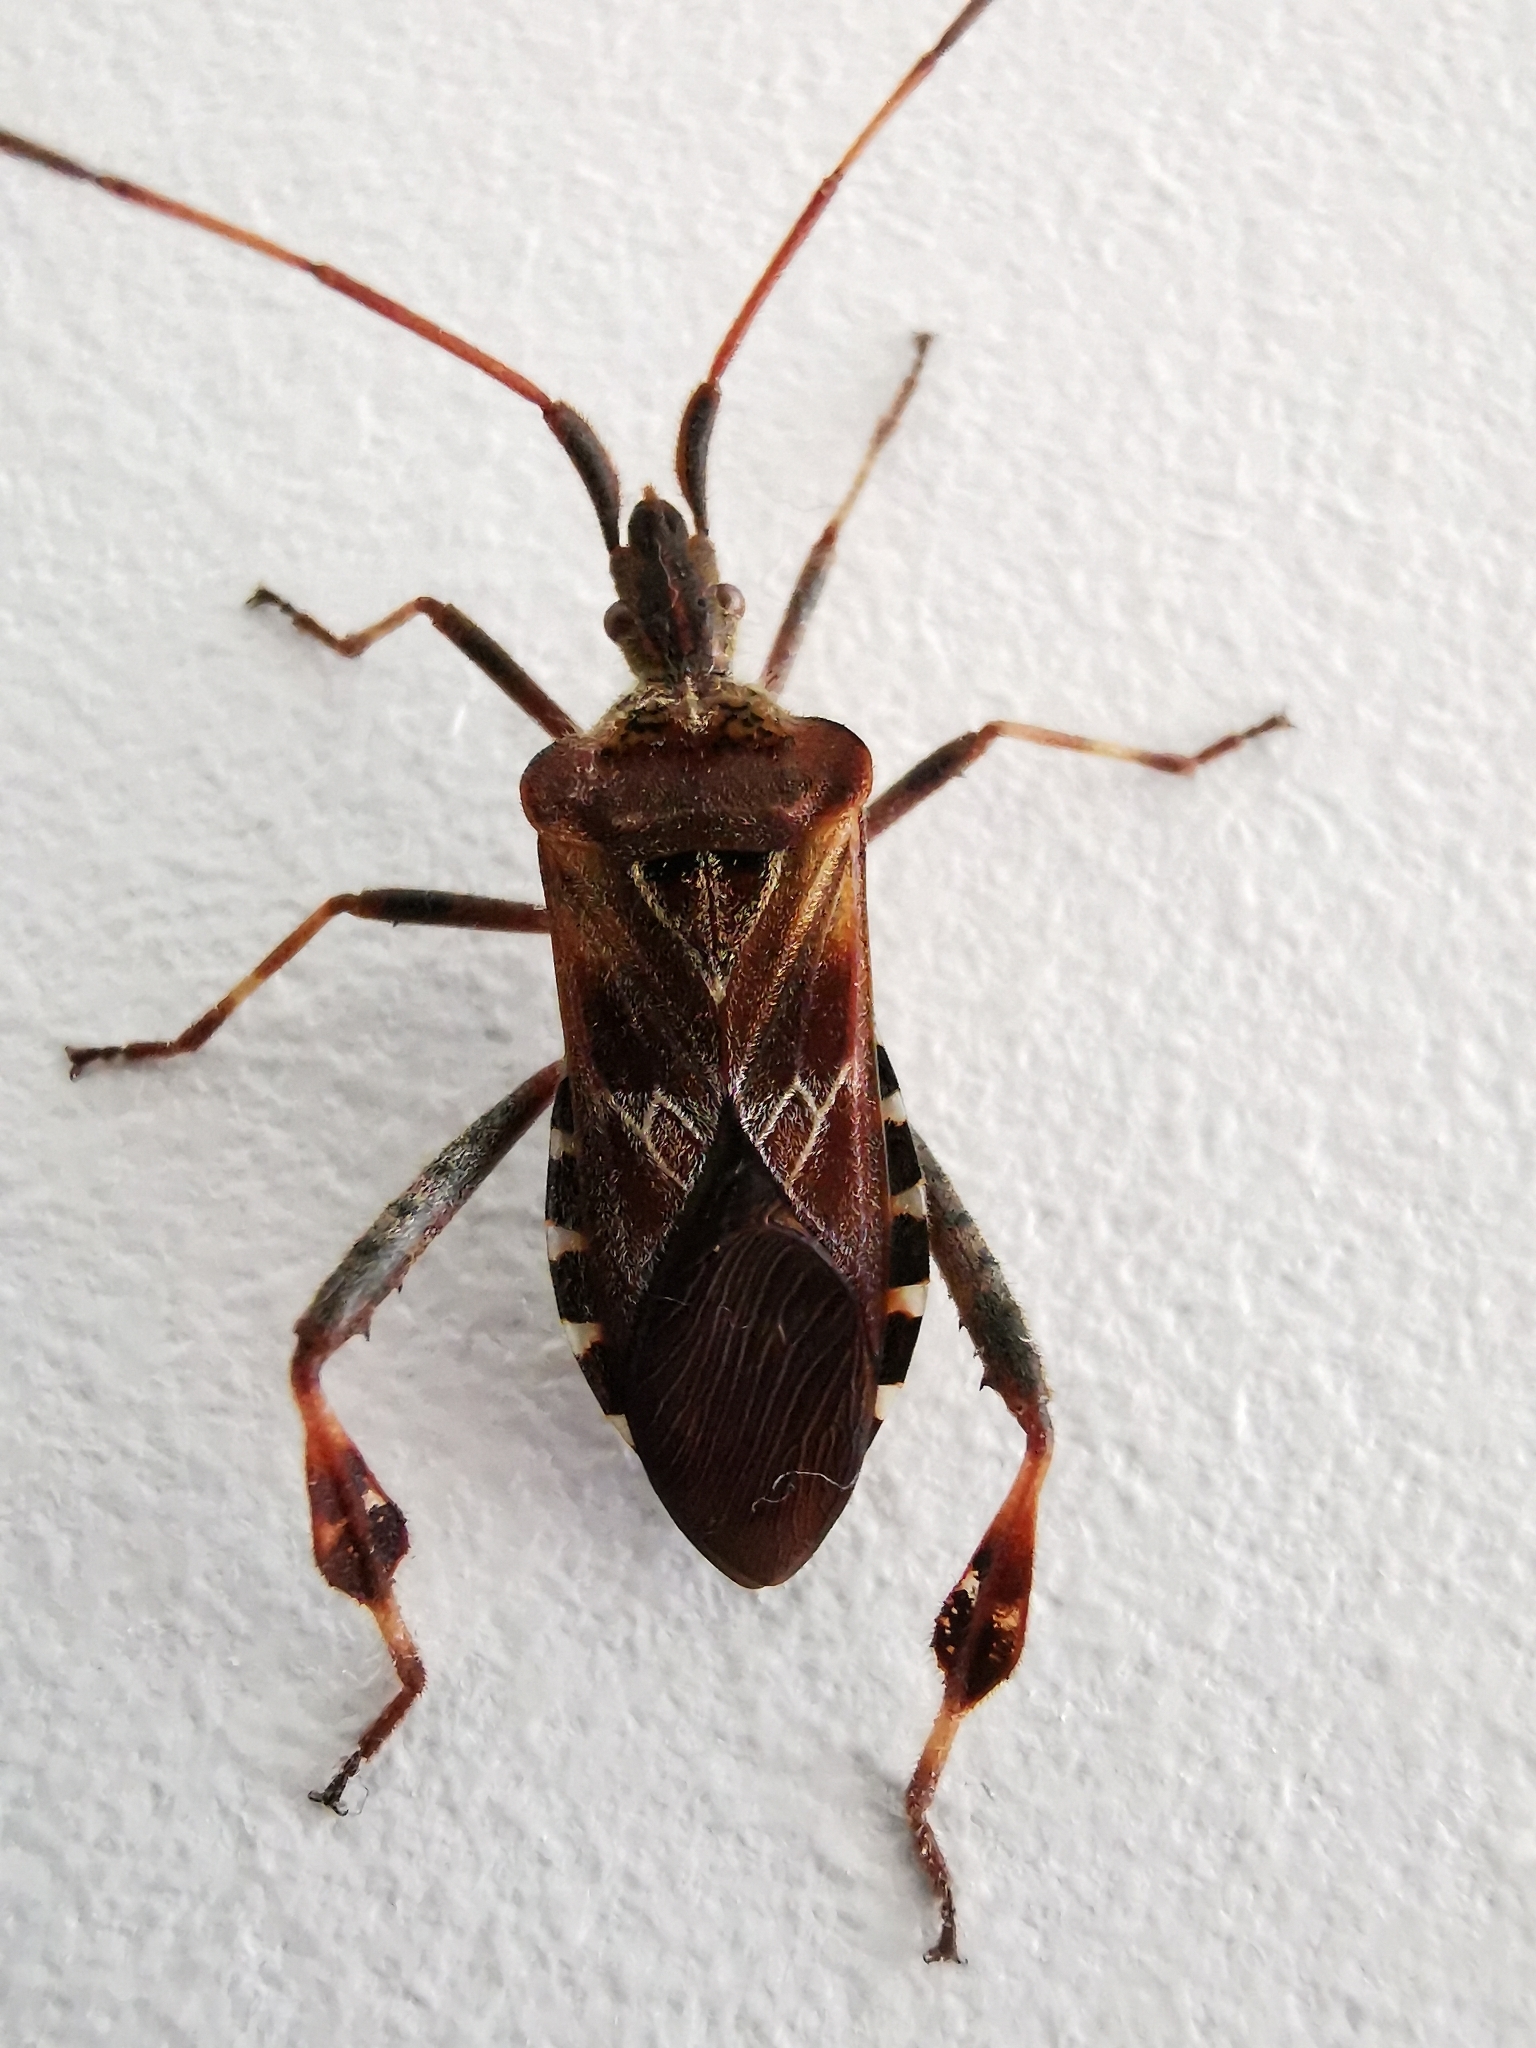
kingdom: Animalia
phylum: Arthropoda
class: Insecta
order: Hemiptera
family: Coreidae
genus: Leptoglossus
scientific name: Leptoglossus occidentalis
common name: Western conifer-seed bug
